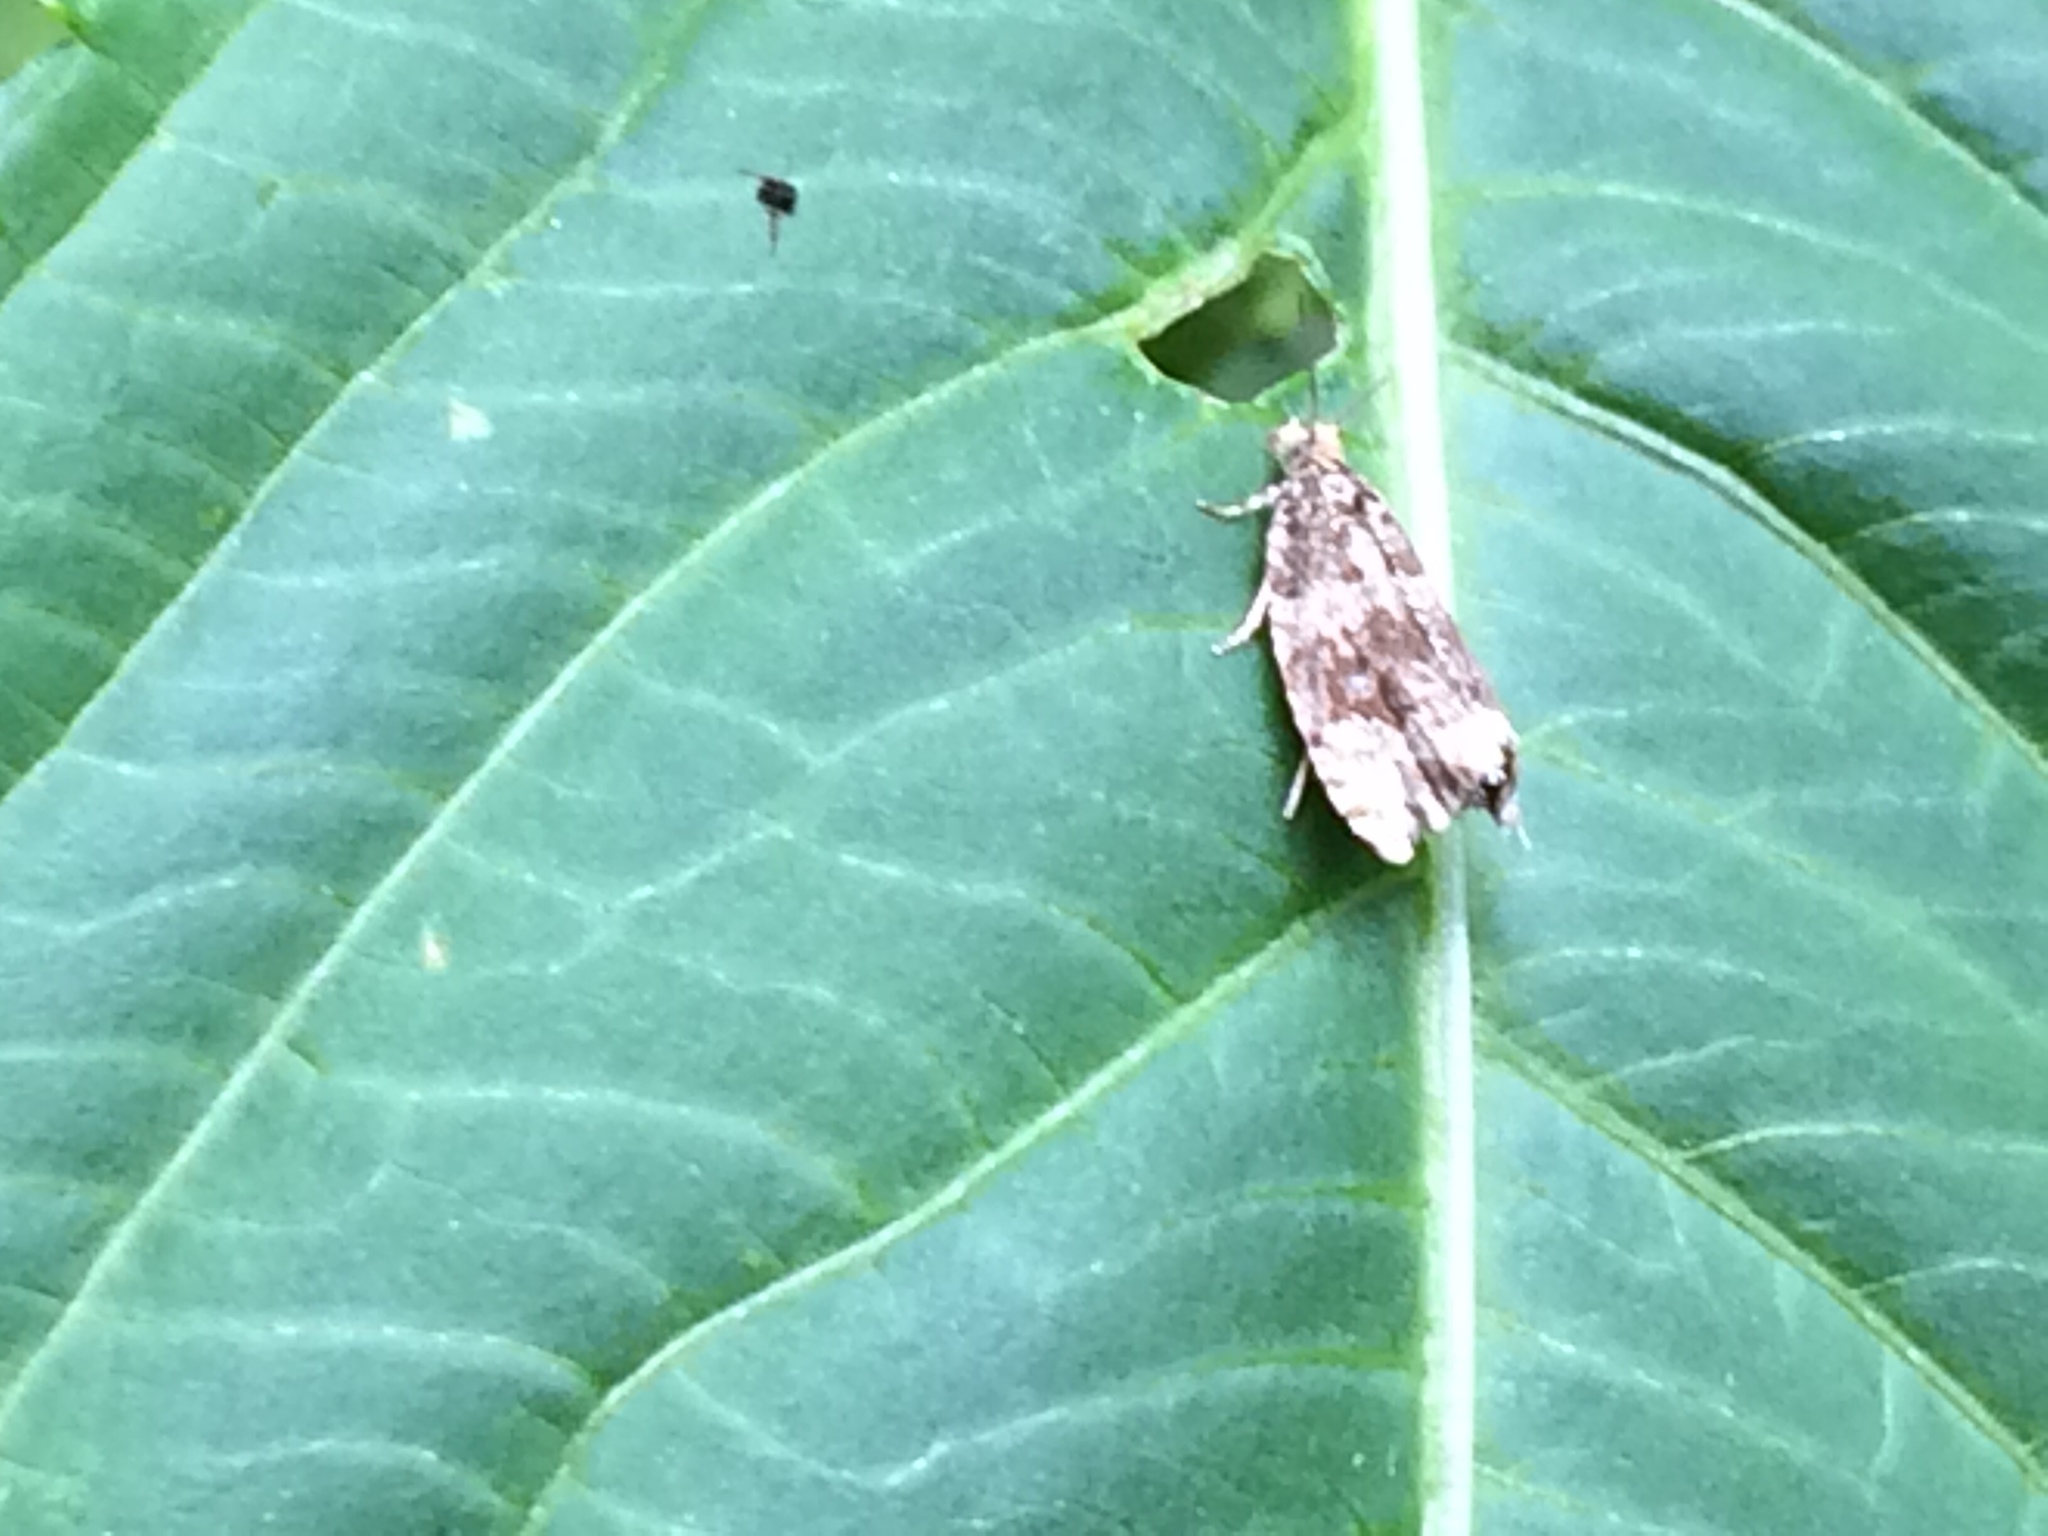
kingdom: Animalia
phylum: Arthropoda
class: Insecta
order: Lepidoptera
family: Tortricidae
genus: Syricoris
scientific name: Syricoris lacunana
